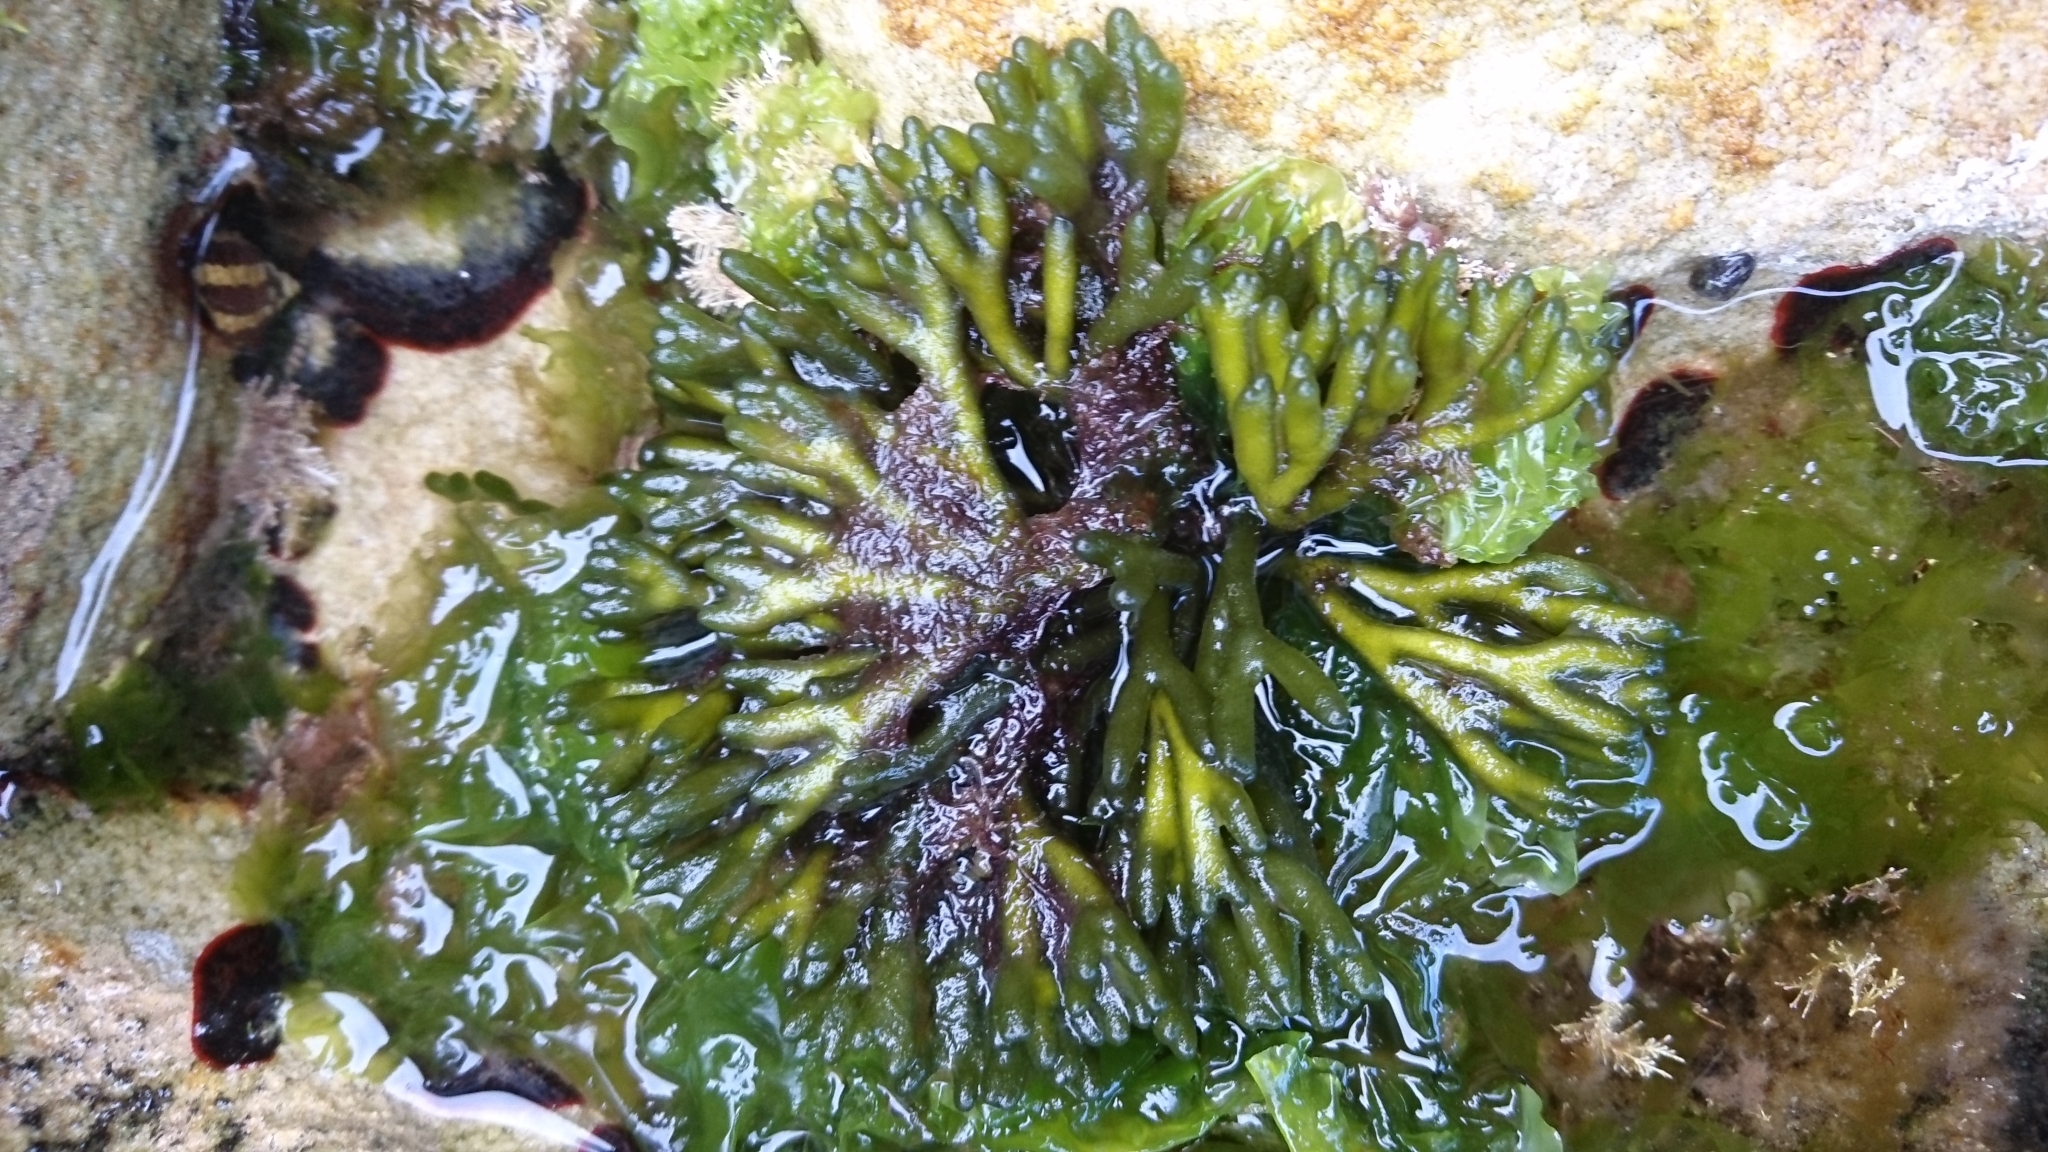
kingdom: Plantae
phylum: Chlorophyta
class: Ulvophyceae
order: Bryopsidales
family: Codiaceae
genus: Codium
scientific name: Codium fragile
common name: Dead man's fingers
